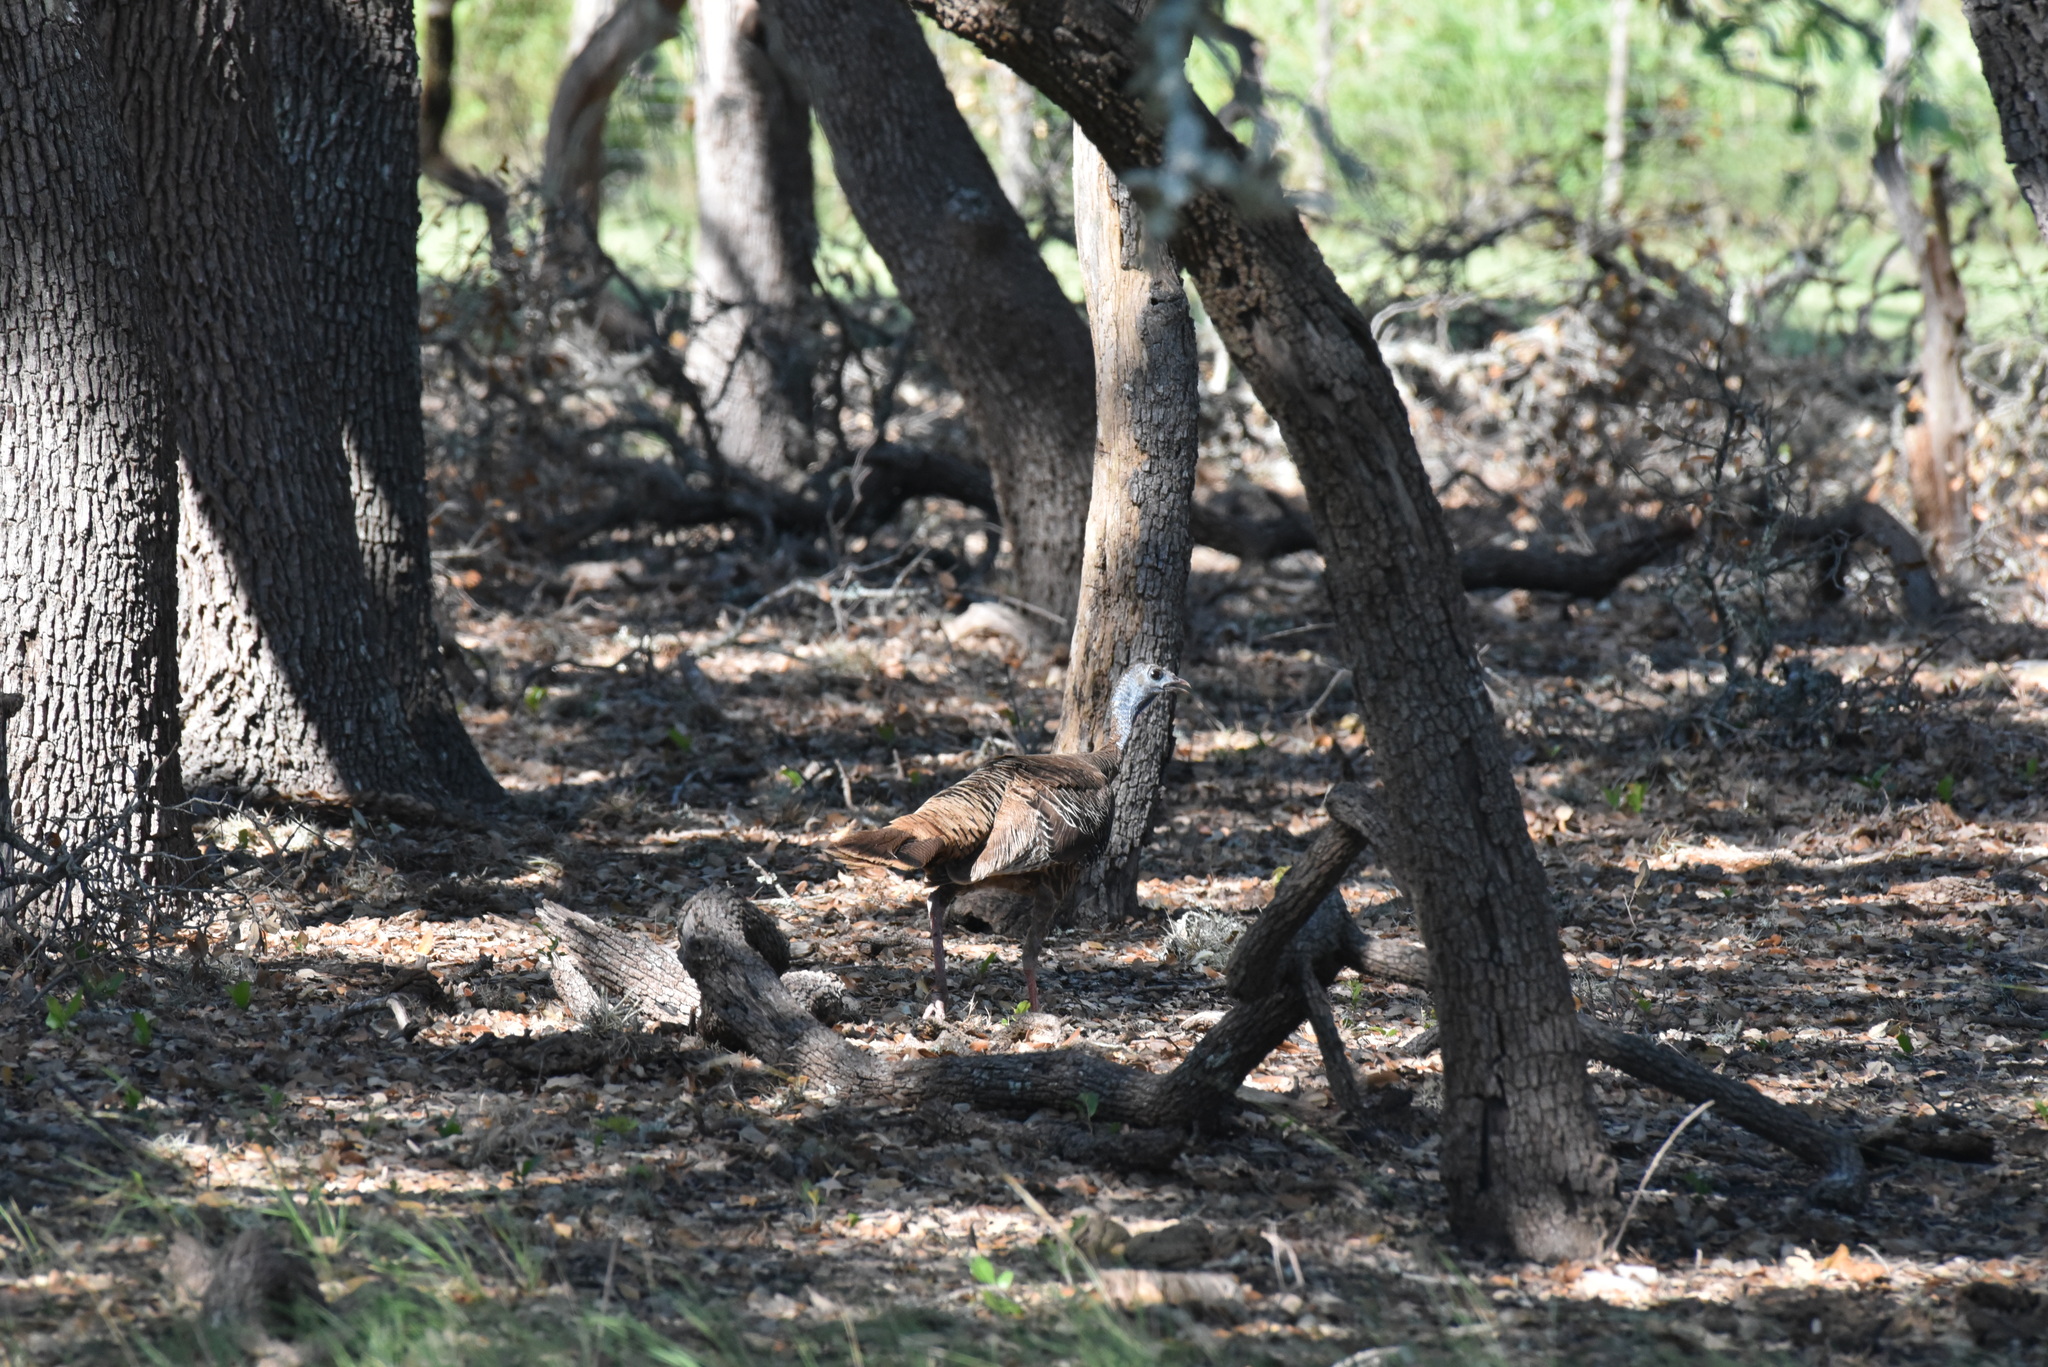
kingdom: Animalia
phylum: Chordata
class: Aves
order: Galliformes
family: Phasianidae
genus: Meleagris
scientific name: Meleagris gallopavo
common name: Wild turkey
